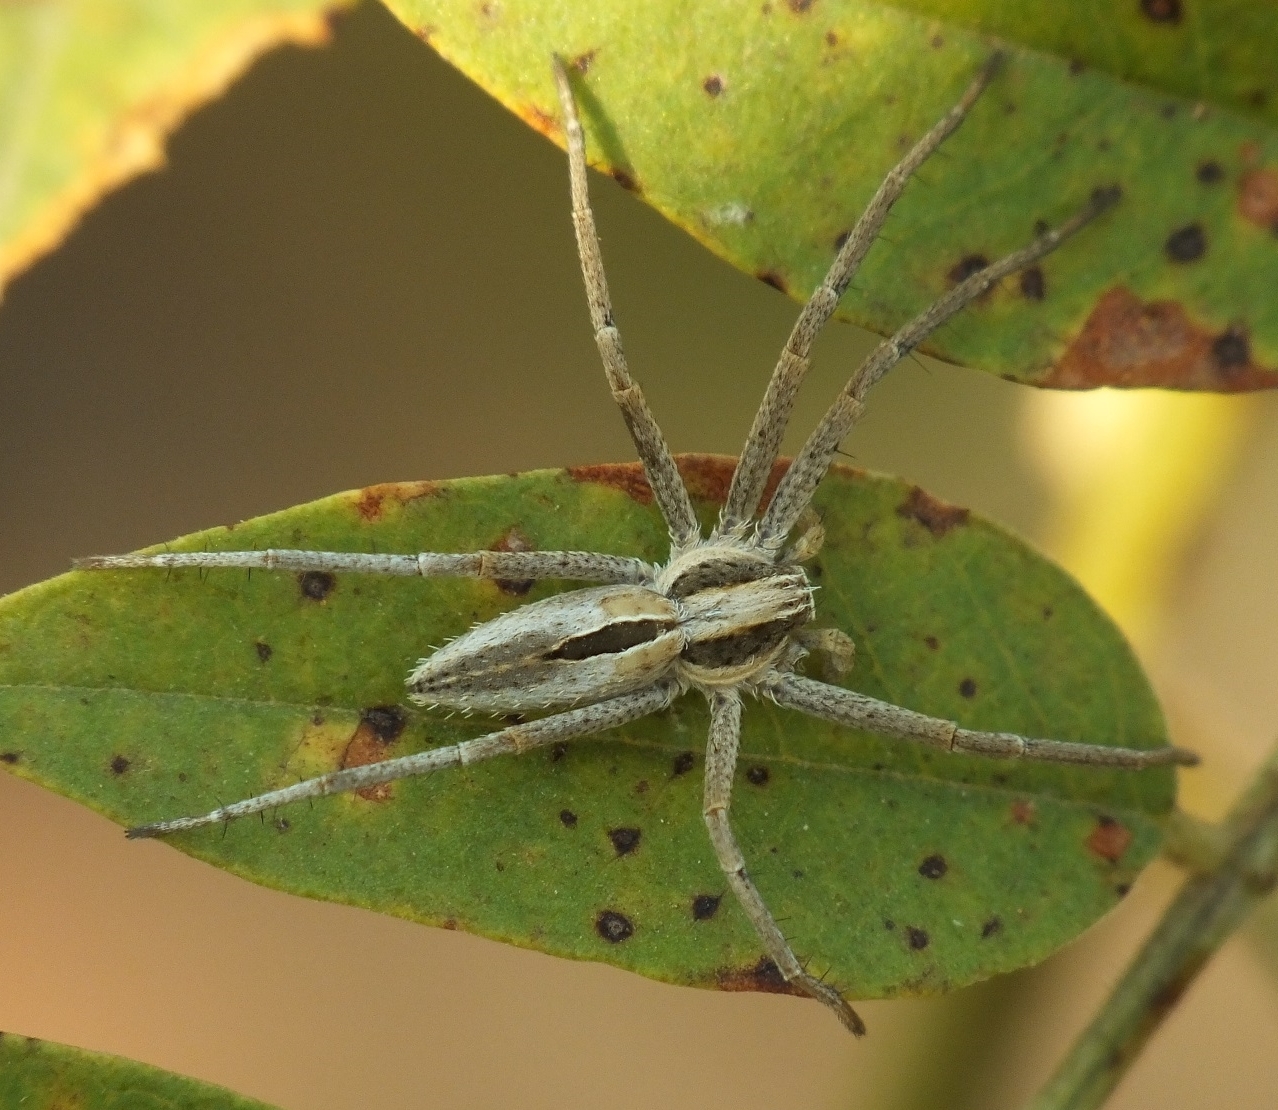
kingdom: Animalia
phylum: Arthropoda
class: Arachnida
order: Araneae
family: Philodromidae
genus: Thanatus
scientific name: Thanatus arenarius
